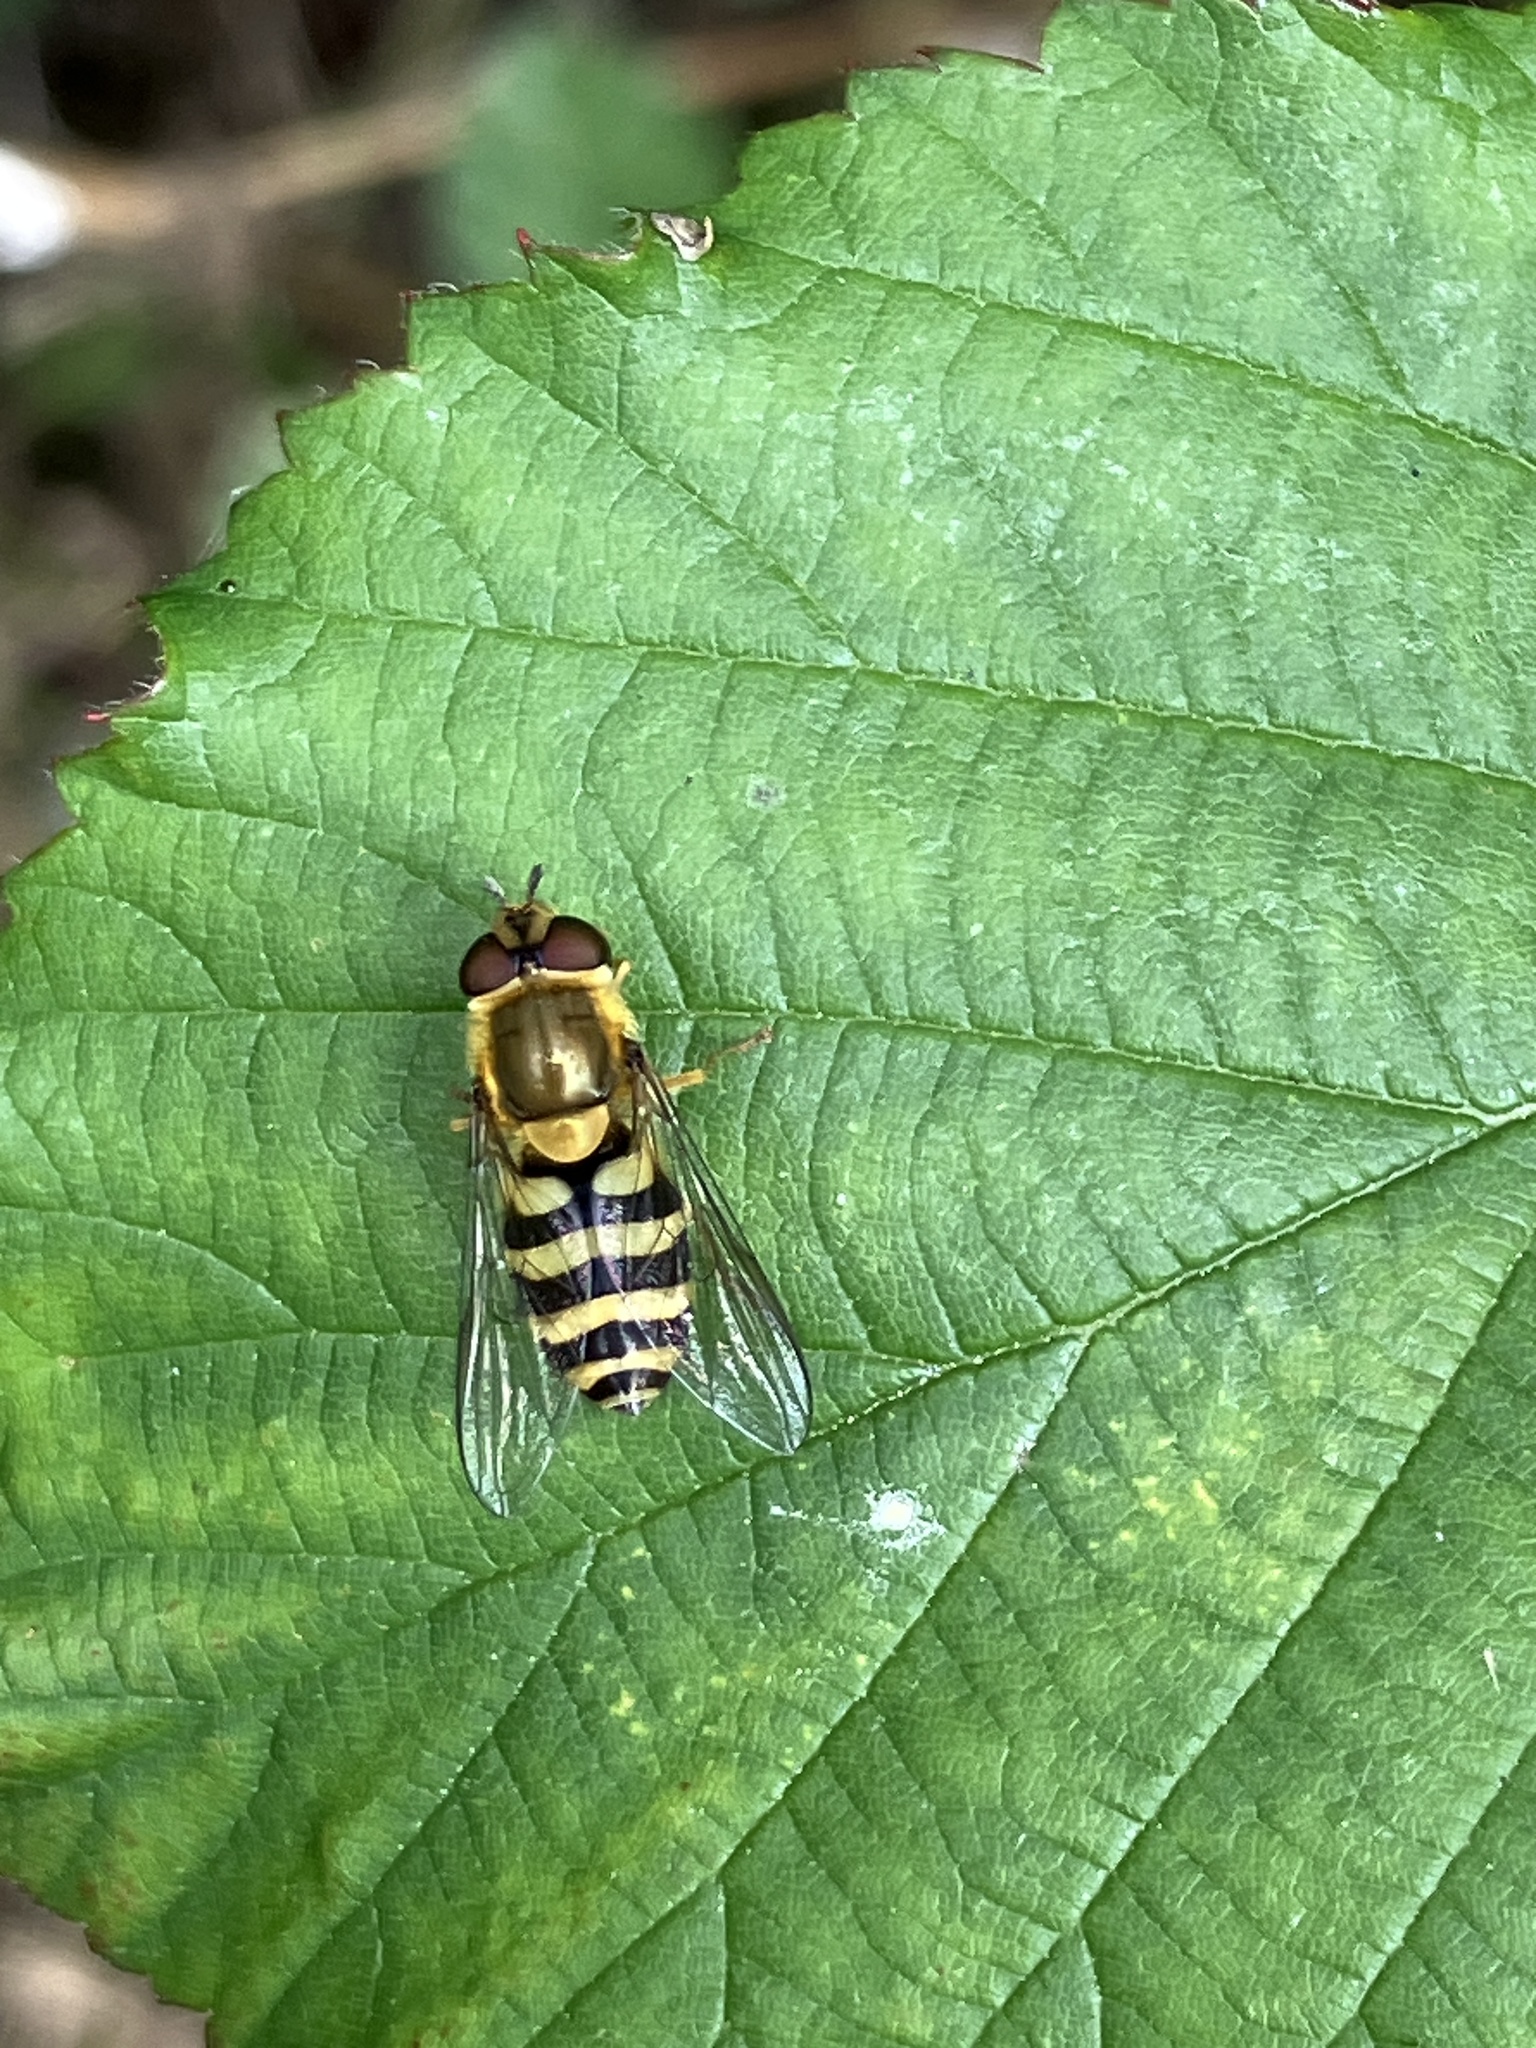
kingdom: Animalia
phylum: Arthropoda
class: Insecta
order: Diptera
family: Syrphidae
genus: Syrphus
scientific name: Syrphus
